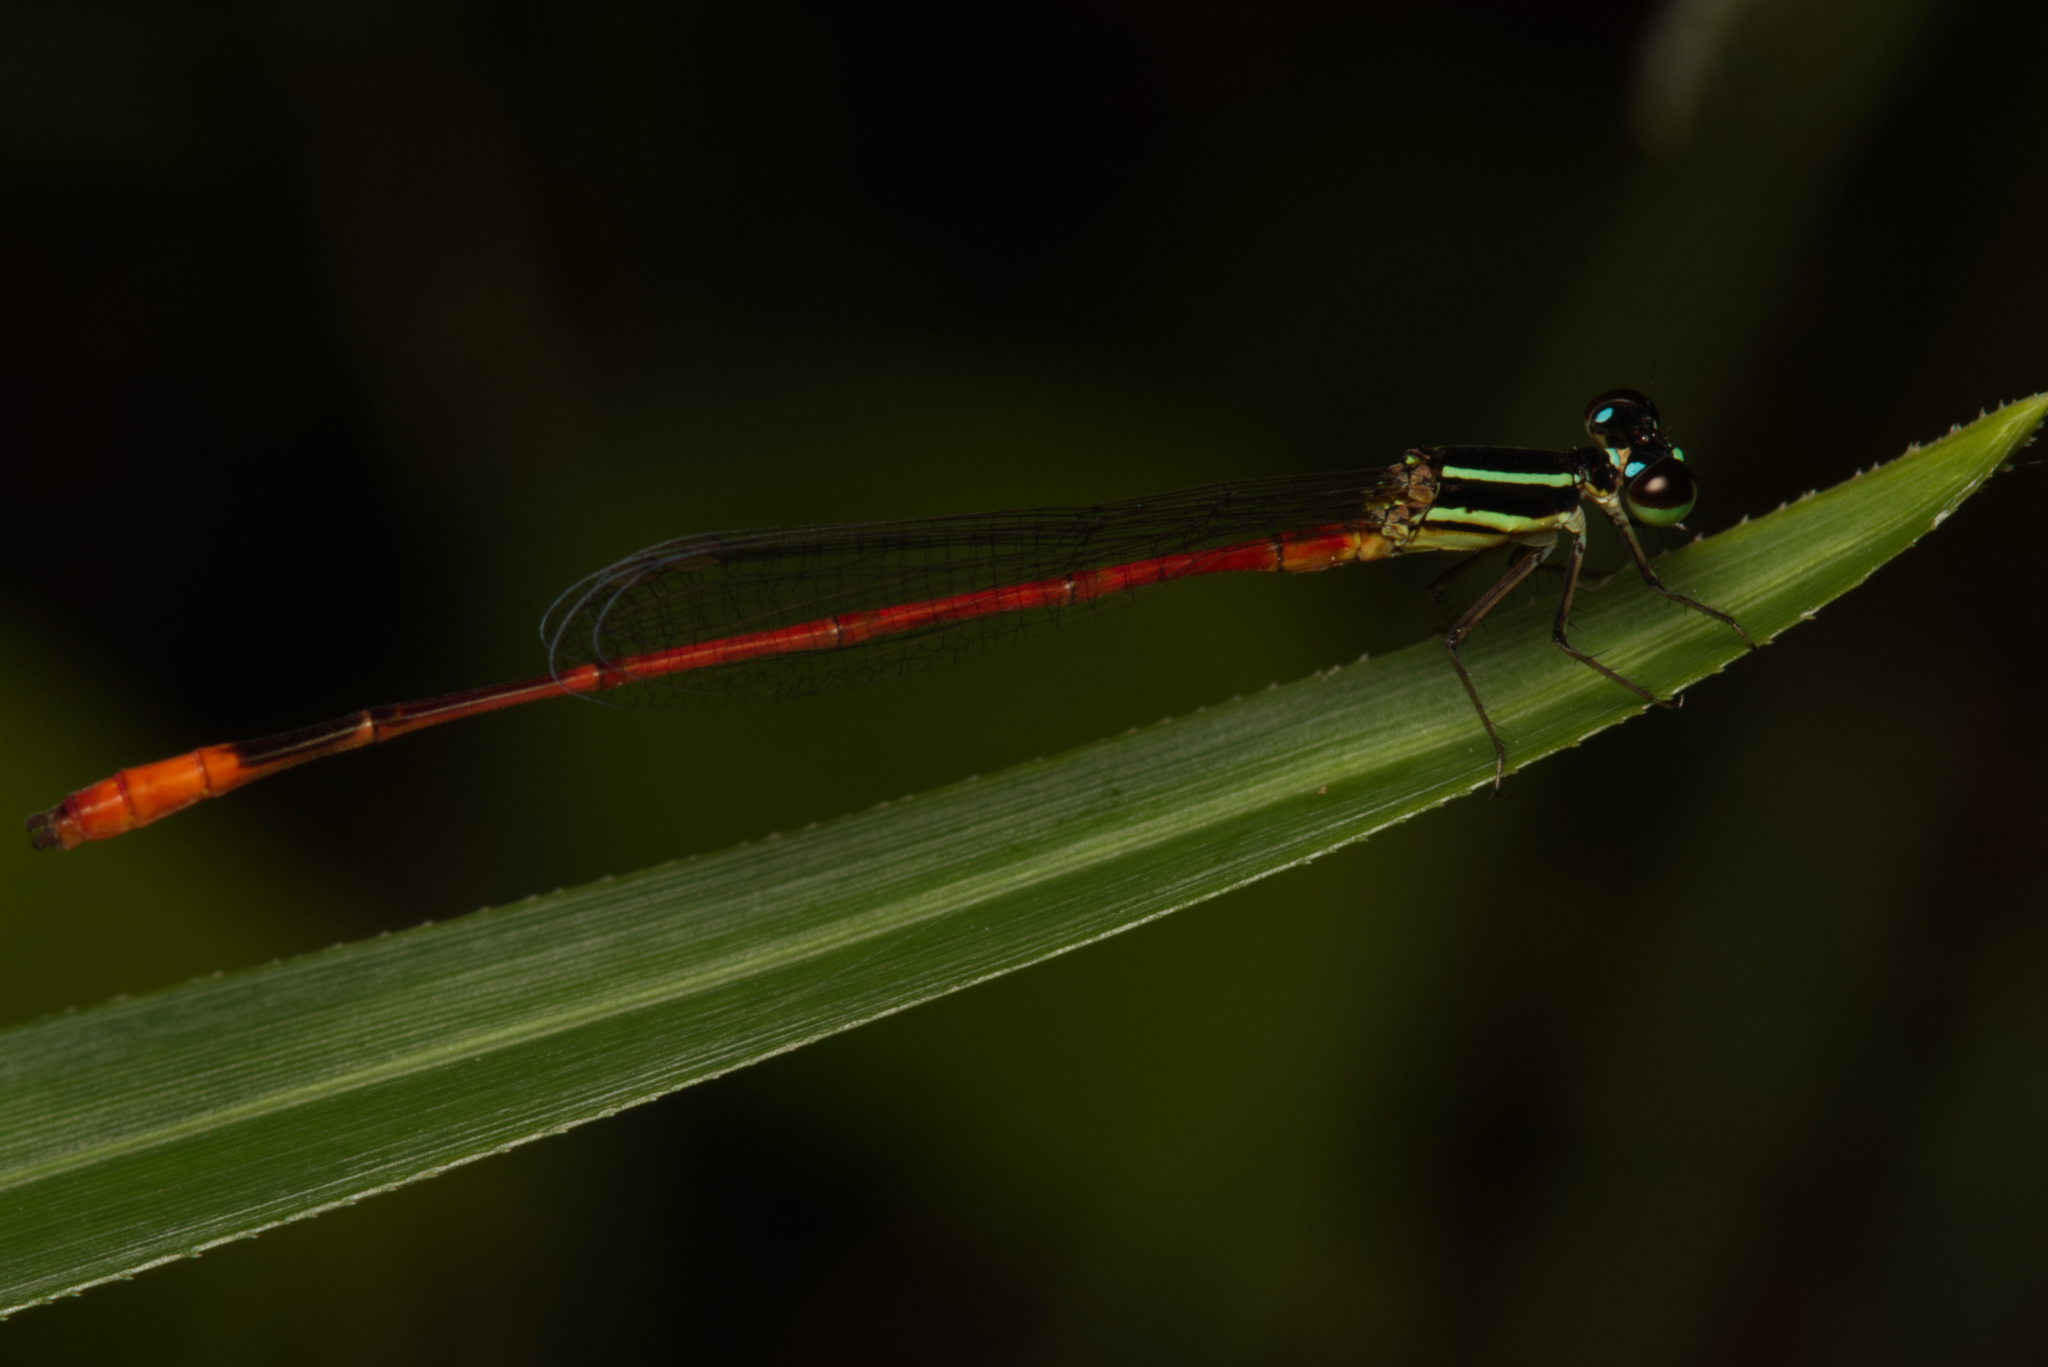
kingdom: Animalia
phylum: Arthropoda
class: Insecta
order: Odonata
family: Coenagrionidae
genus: Argiocnemis
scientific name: Argiocnemis rubescens
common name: Red-tipped shadefly
